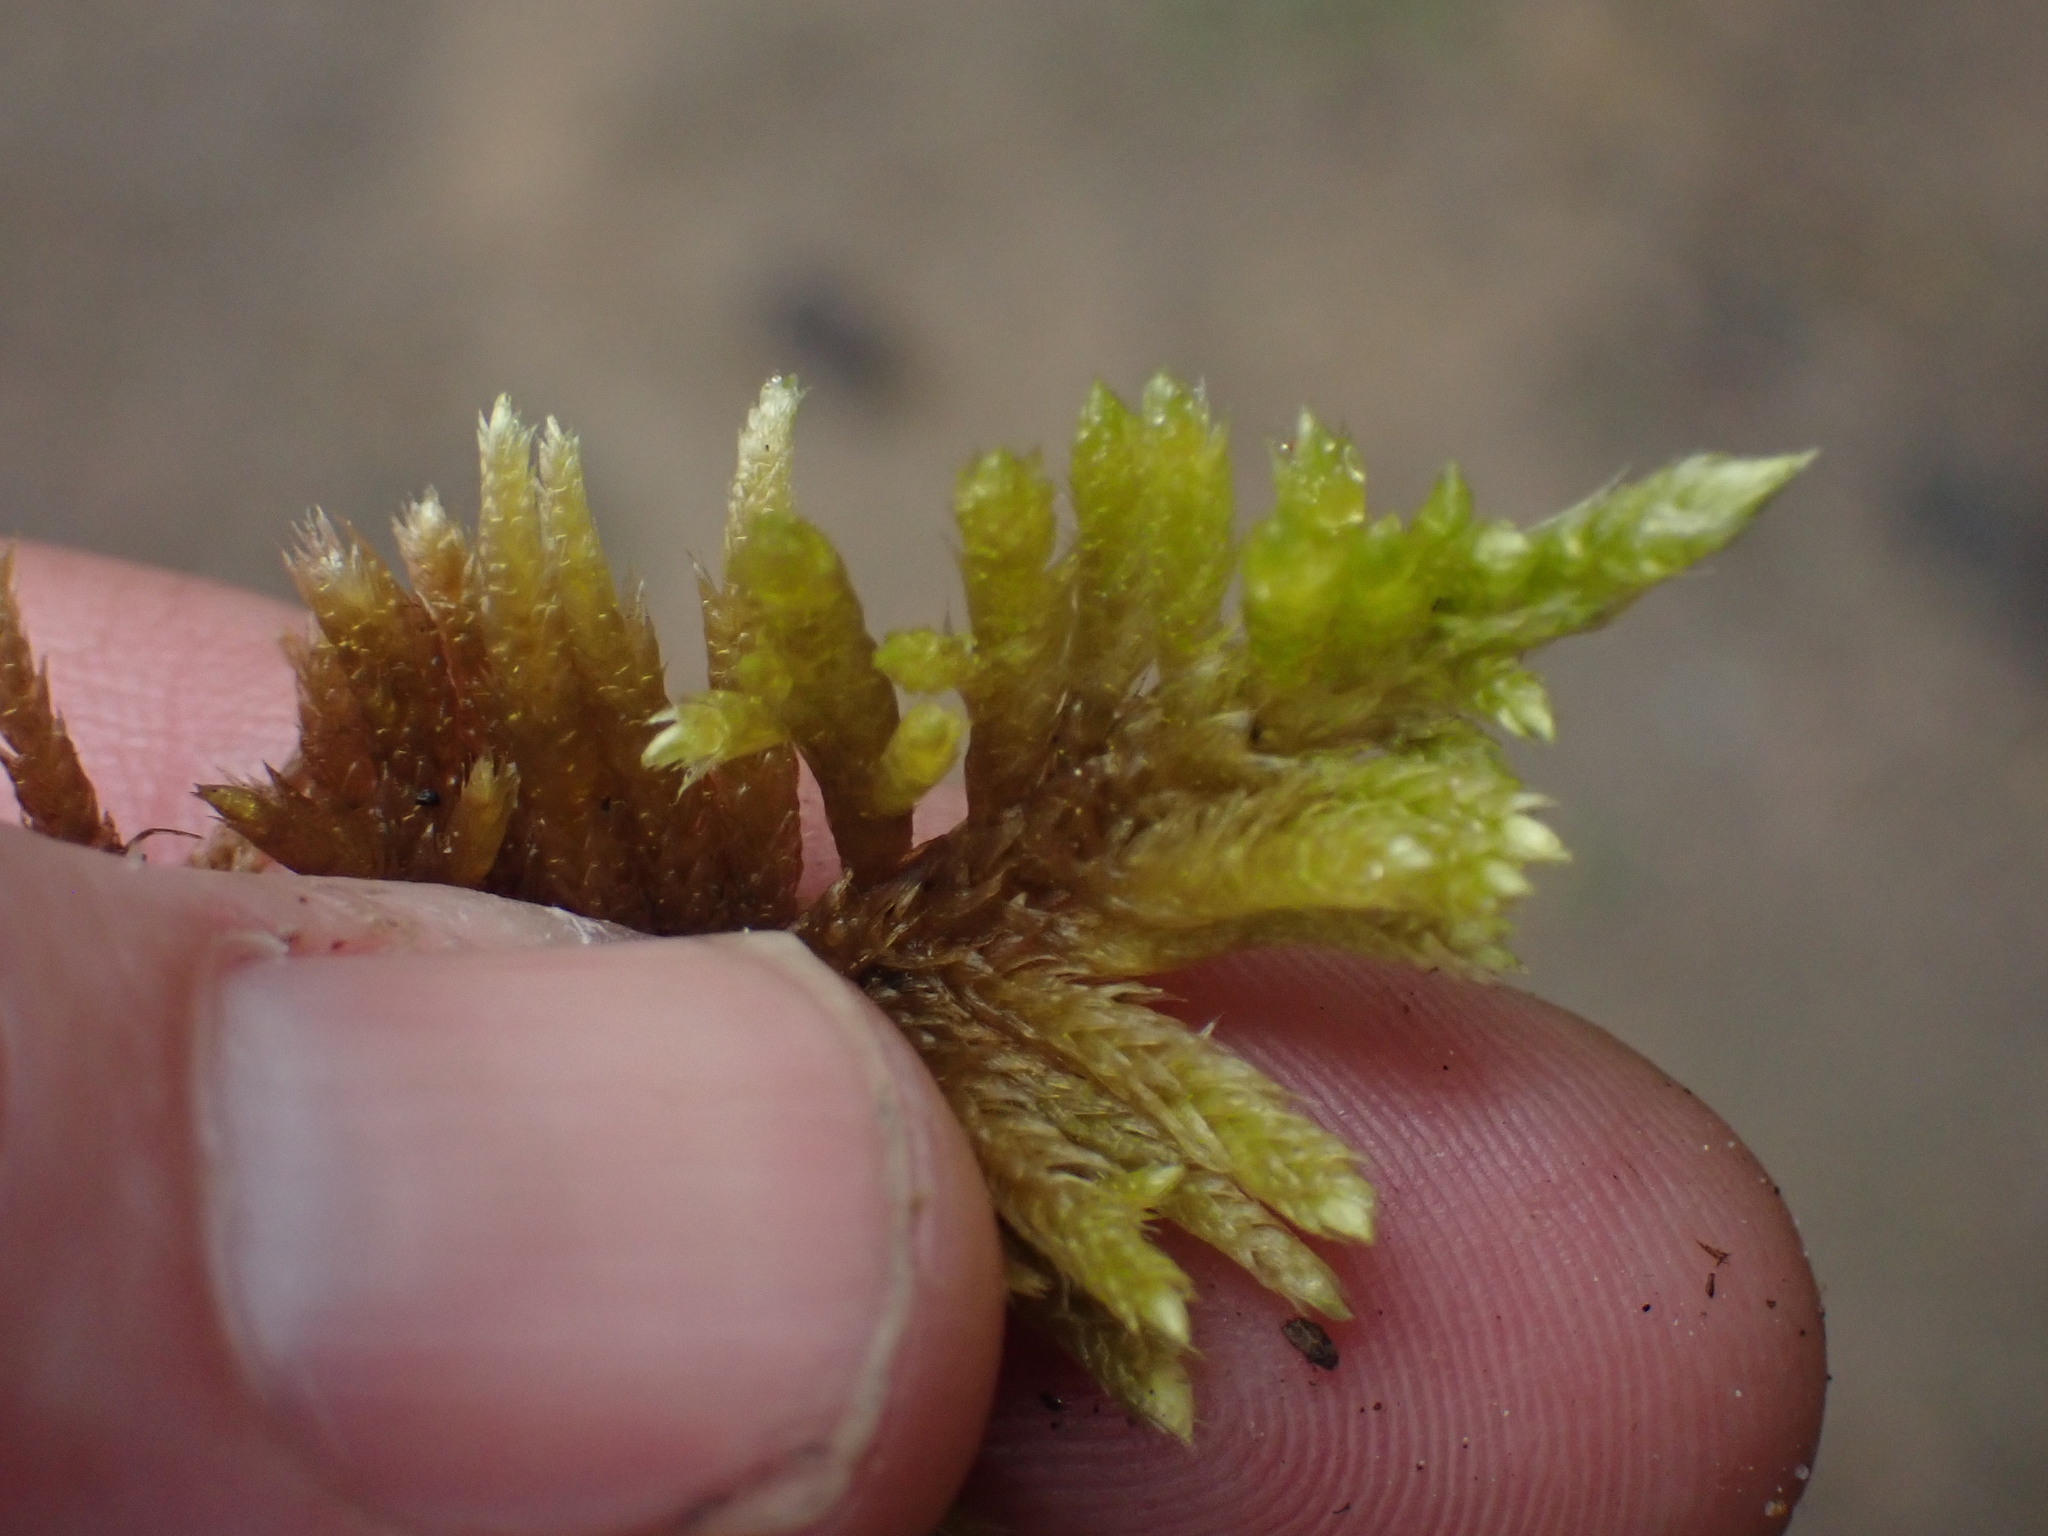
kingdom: Plantae
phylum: Bryophyta
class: Bryopsida
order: Hypnales
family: Brachytheciaceae
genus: Homalothecium
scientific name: Homalothecium nuttallii
